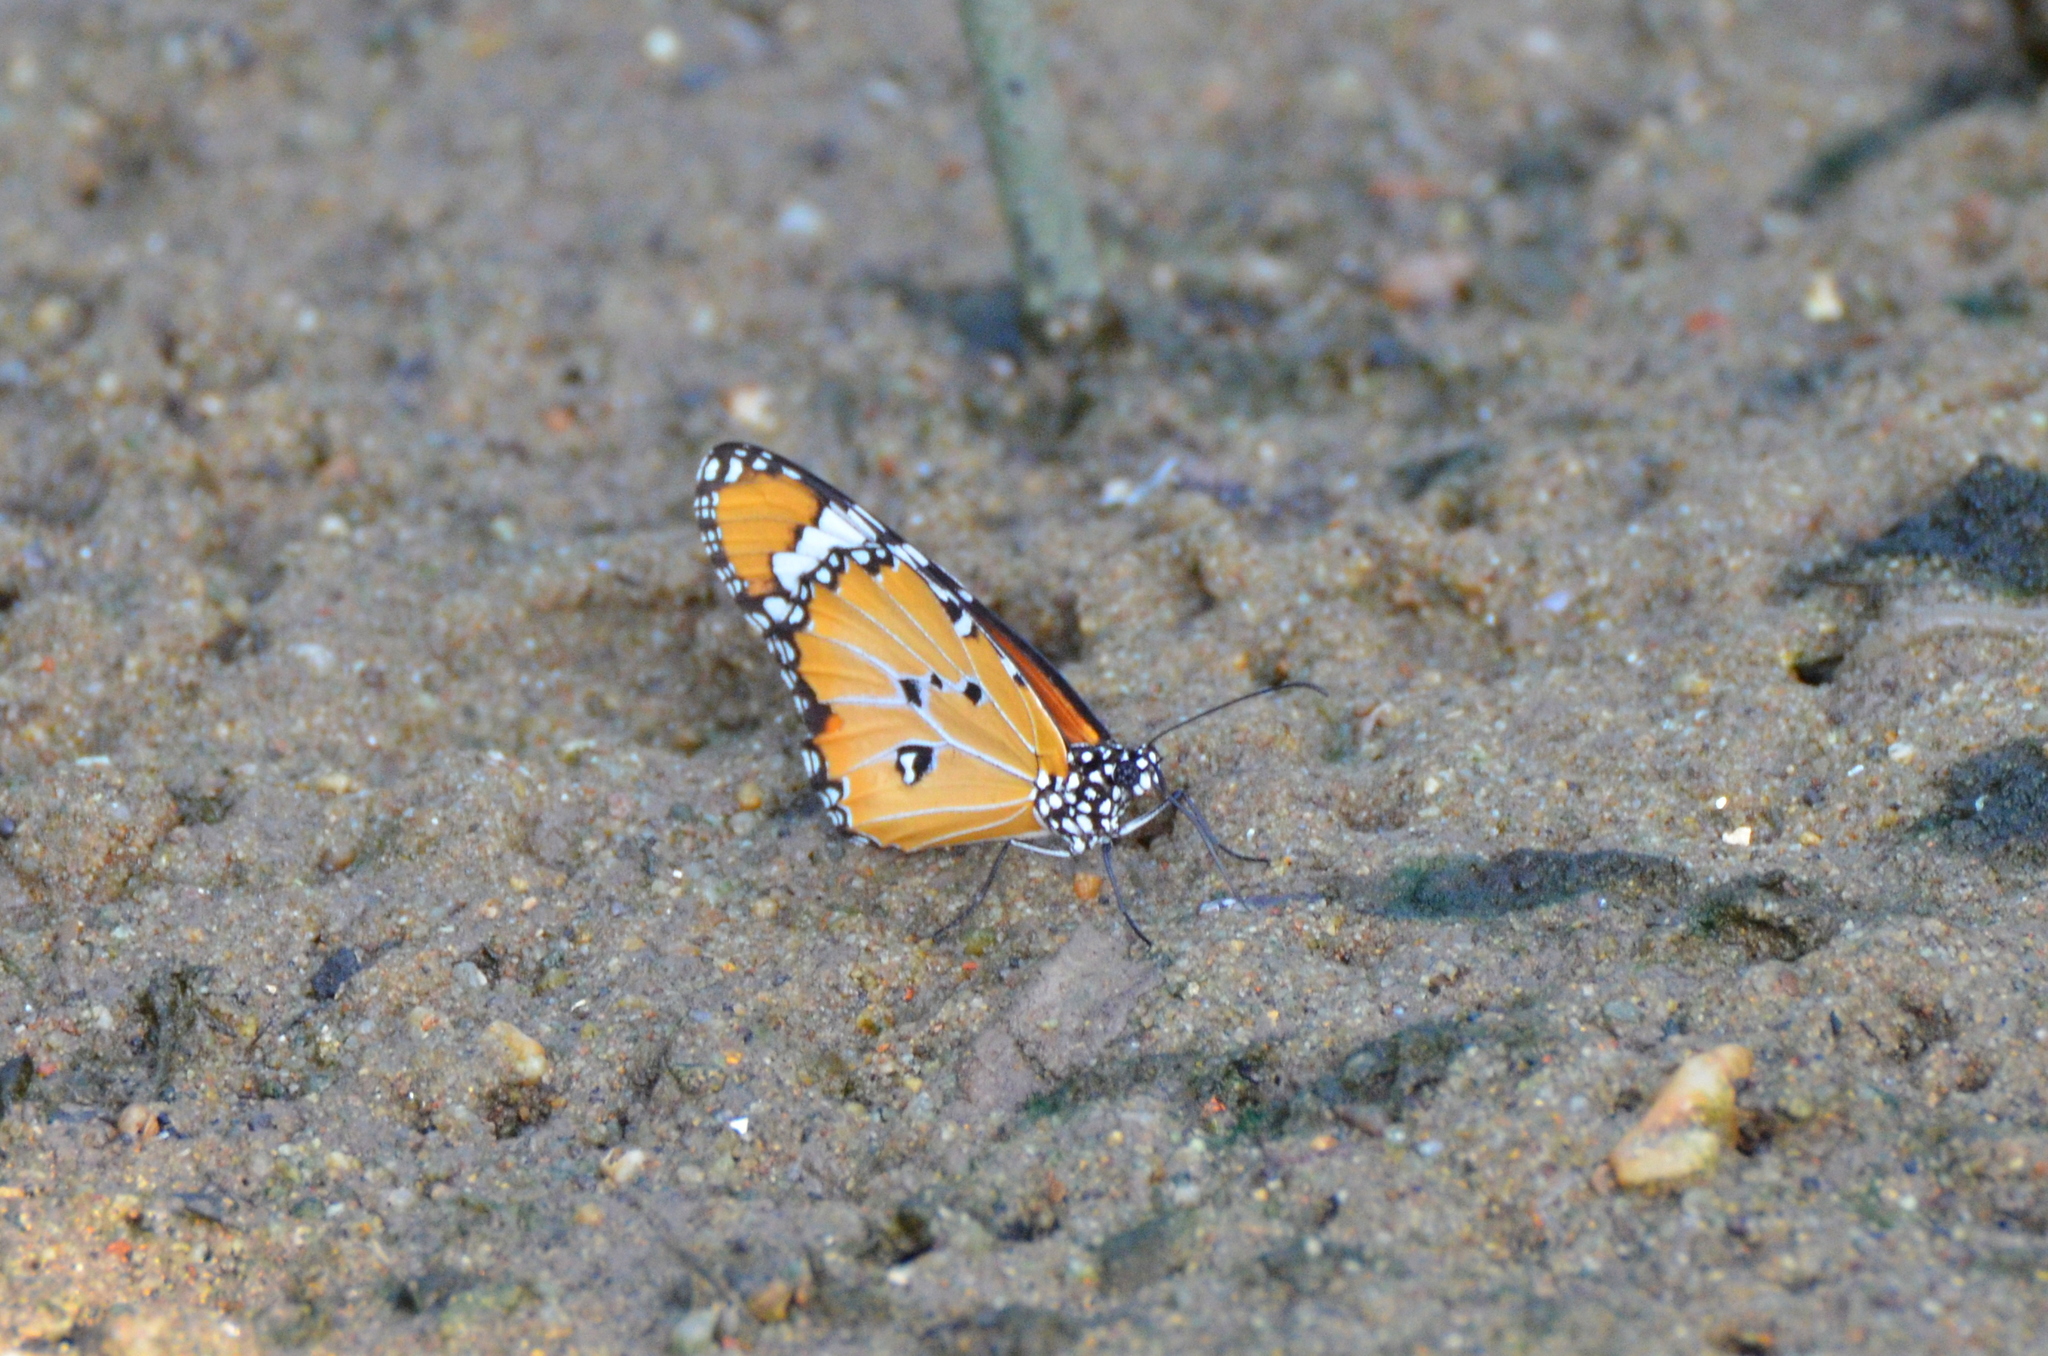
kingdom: Animalia
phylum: Arthropoda
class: Insecta
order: Lepidoptera
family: Nymphalidae
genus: Danaus
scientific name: Danaus chrysippus
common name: Plain tiger
